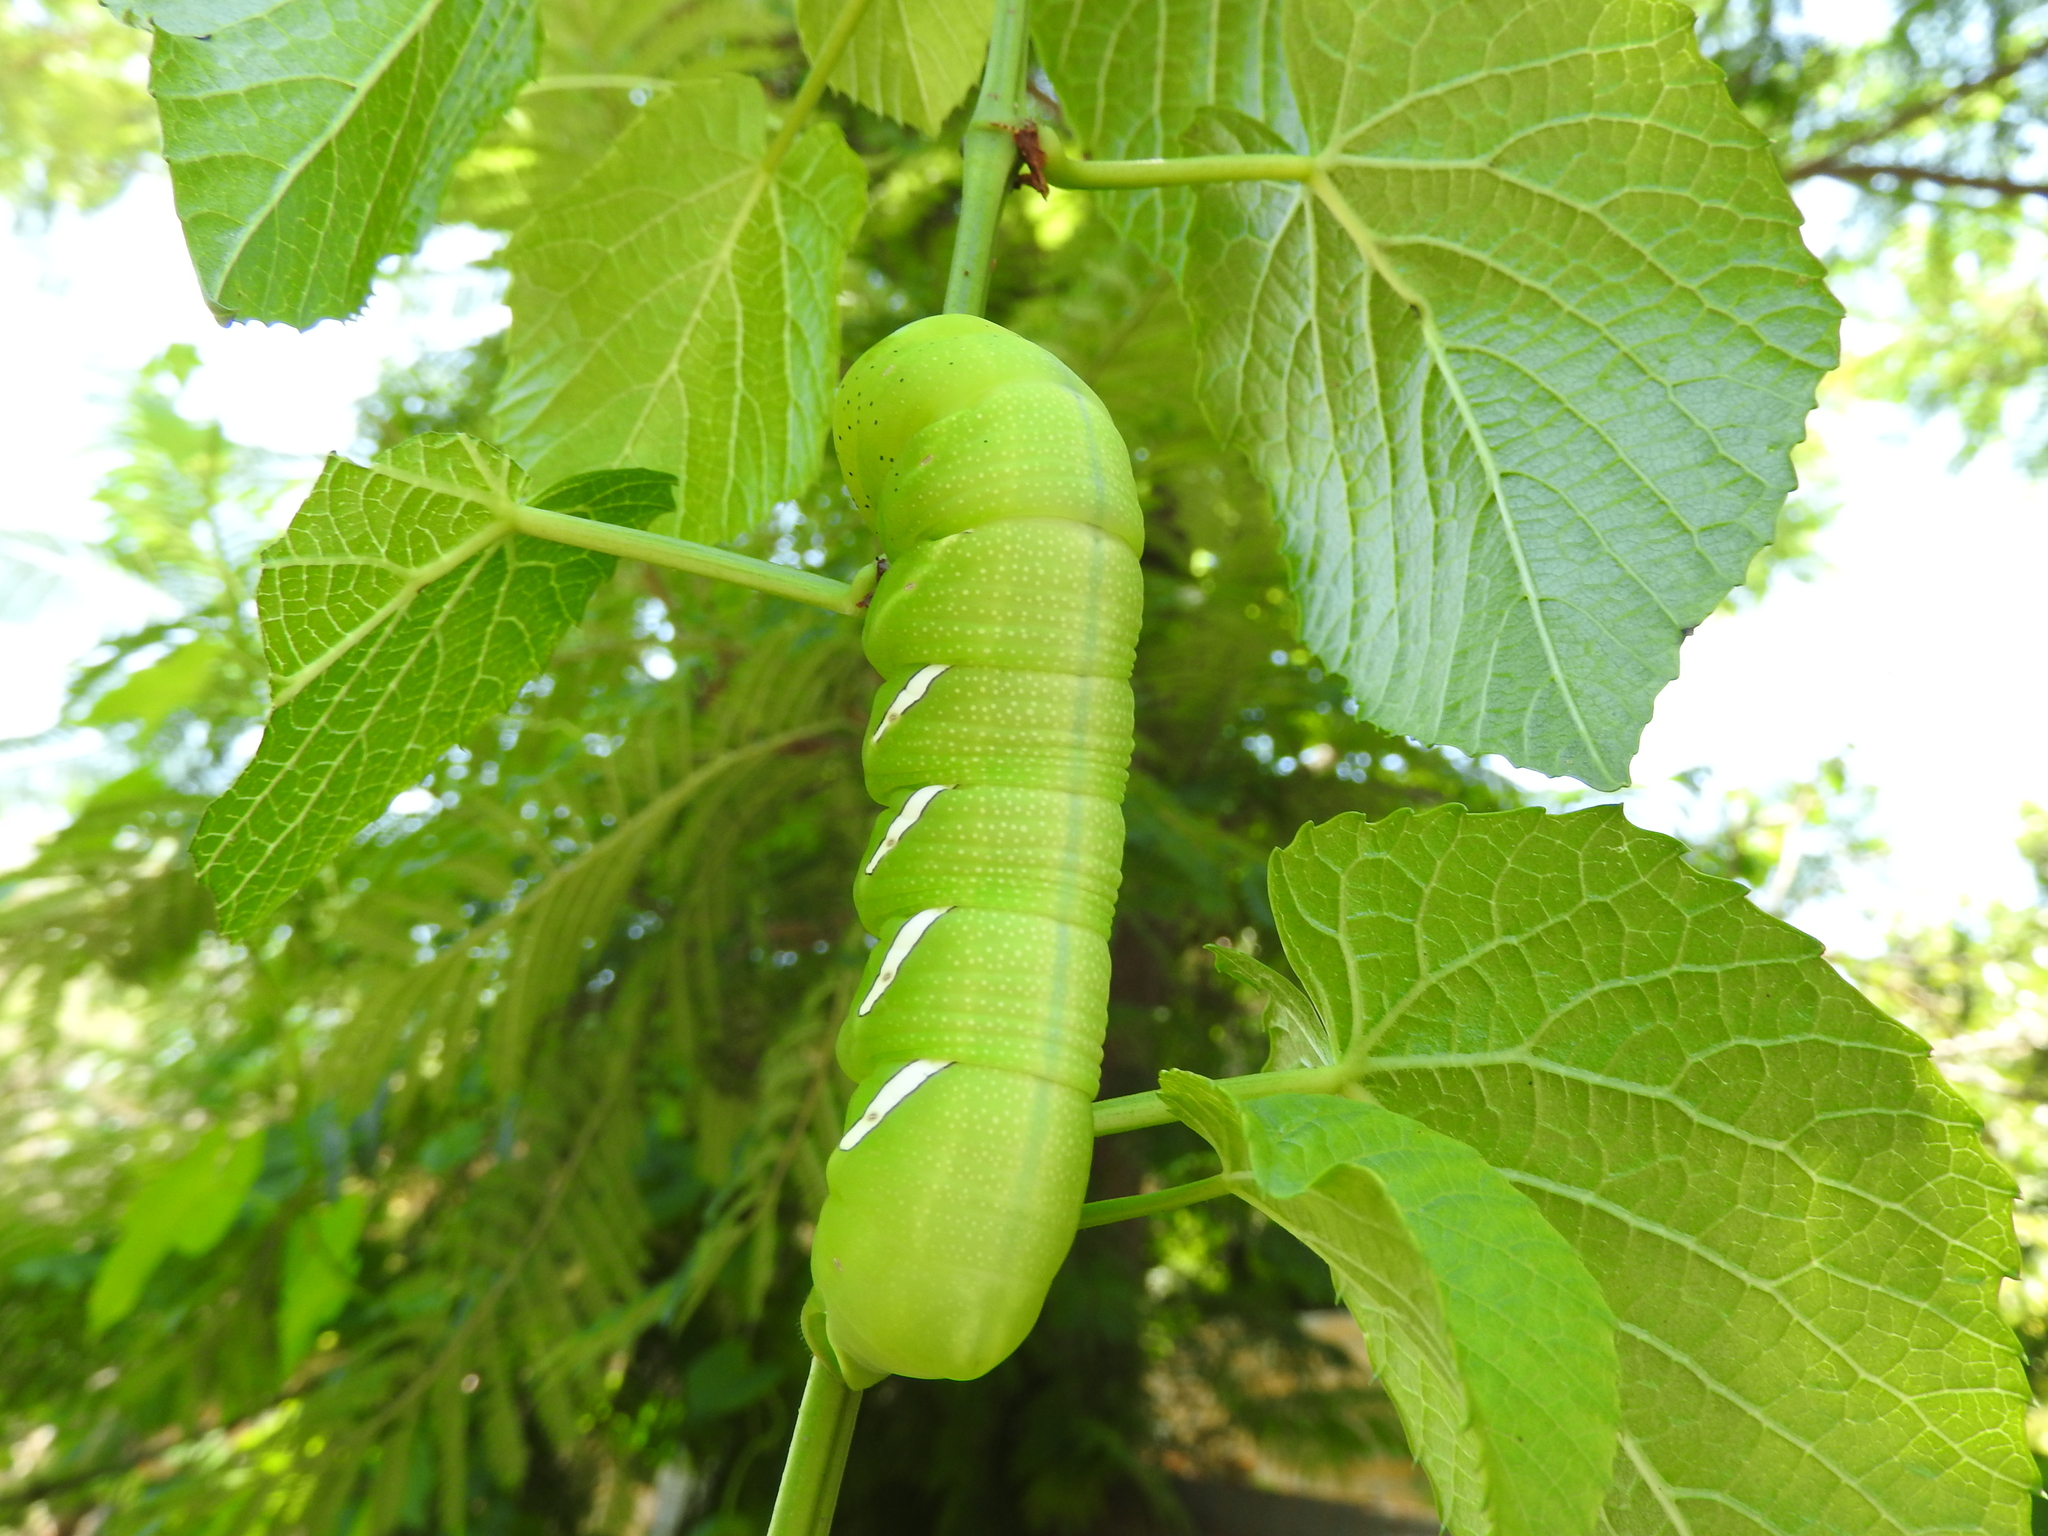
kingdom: Animalia
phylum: Arthropoda
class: Insecta
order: Lepidoptera
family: Sphingidae
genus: Eumorpha
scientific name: Eumorpha vitis
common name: Vine sphinx
